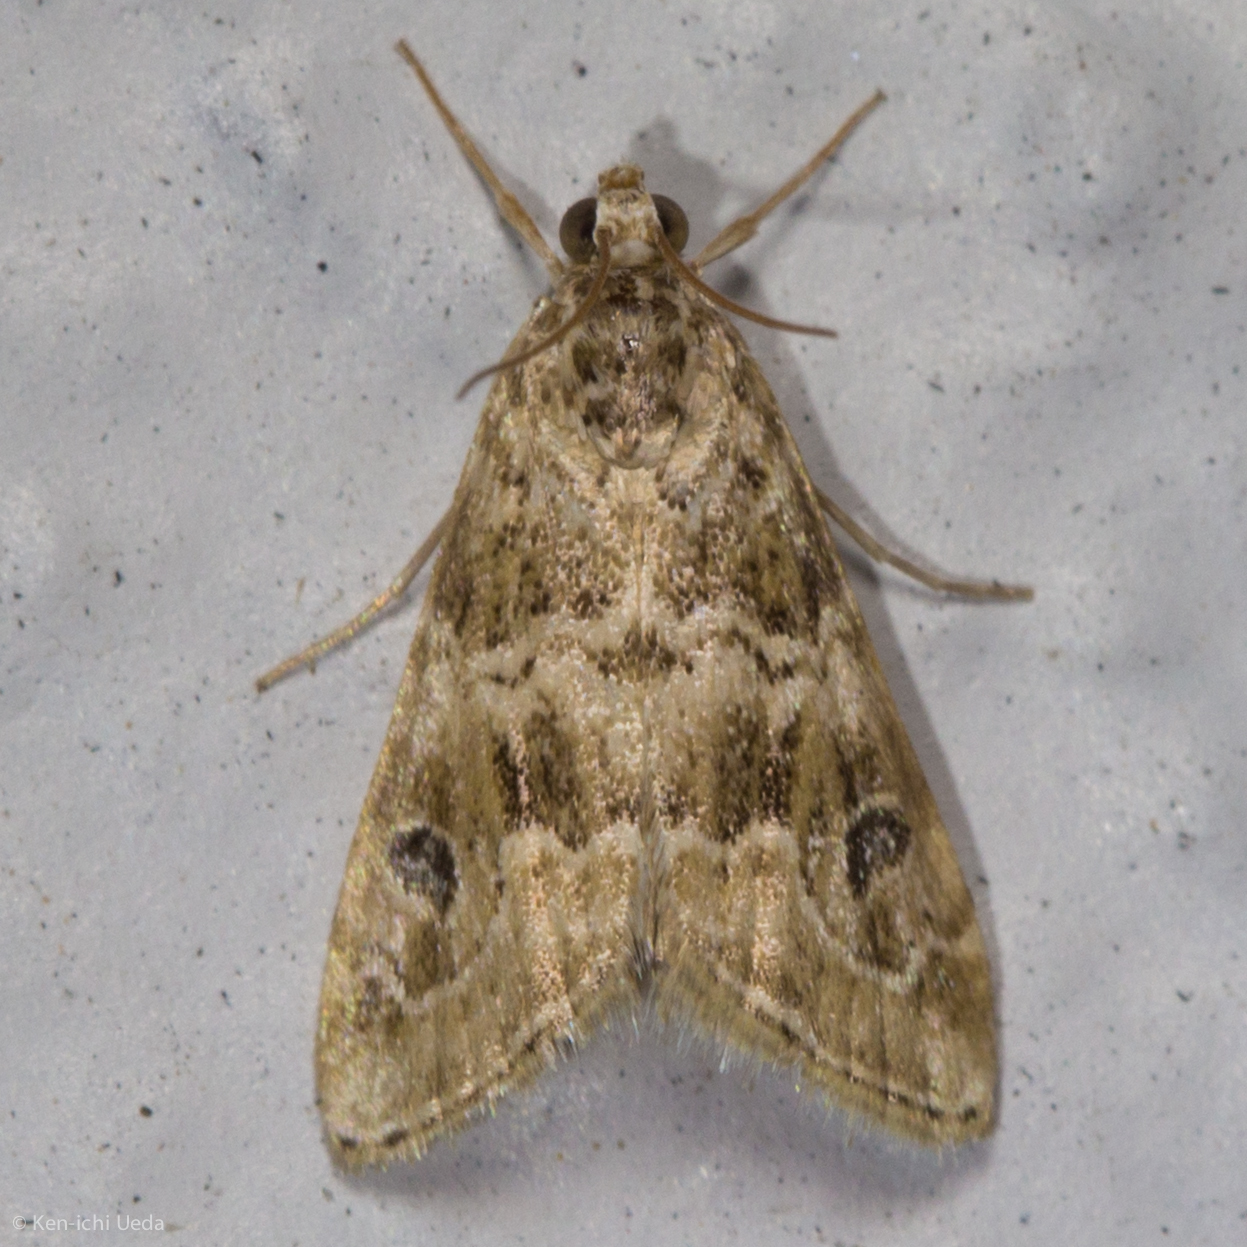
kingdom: Animalia
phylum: Arthropoda
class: Insecta
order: Lepidoptera
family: Crambidae
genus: Hellula
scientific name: Hellula rogatalis
